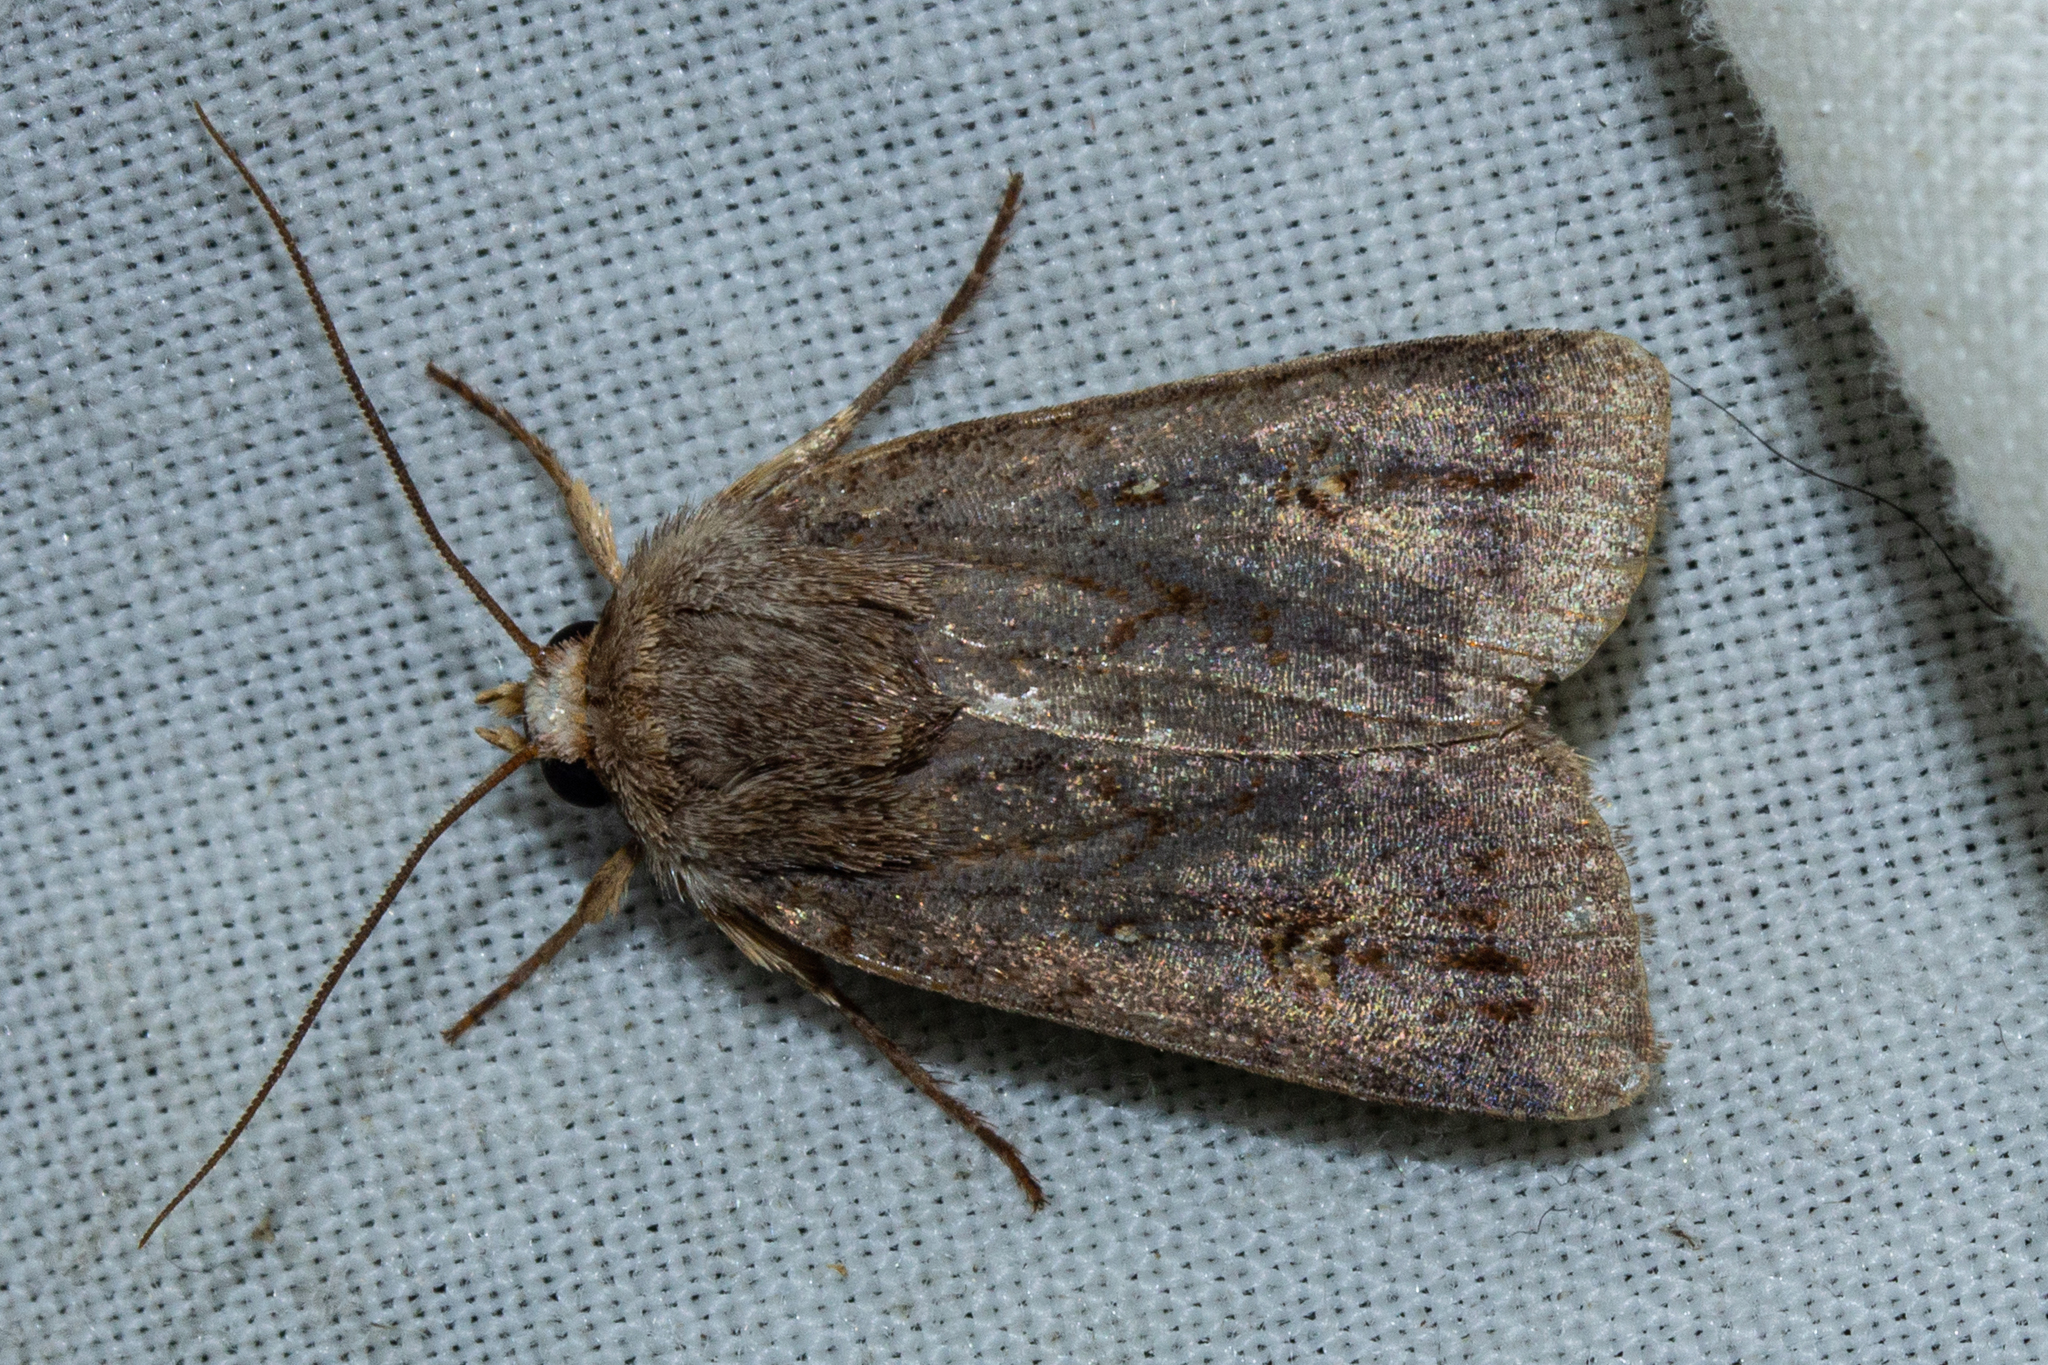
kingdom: Animalia
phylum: Arthropoda
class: Insecta
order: Lepidoptera
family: Noctuidae
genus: Proteuxoa
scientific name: Proteuxoa tetronycha
